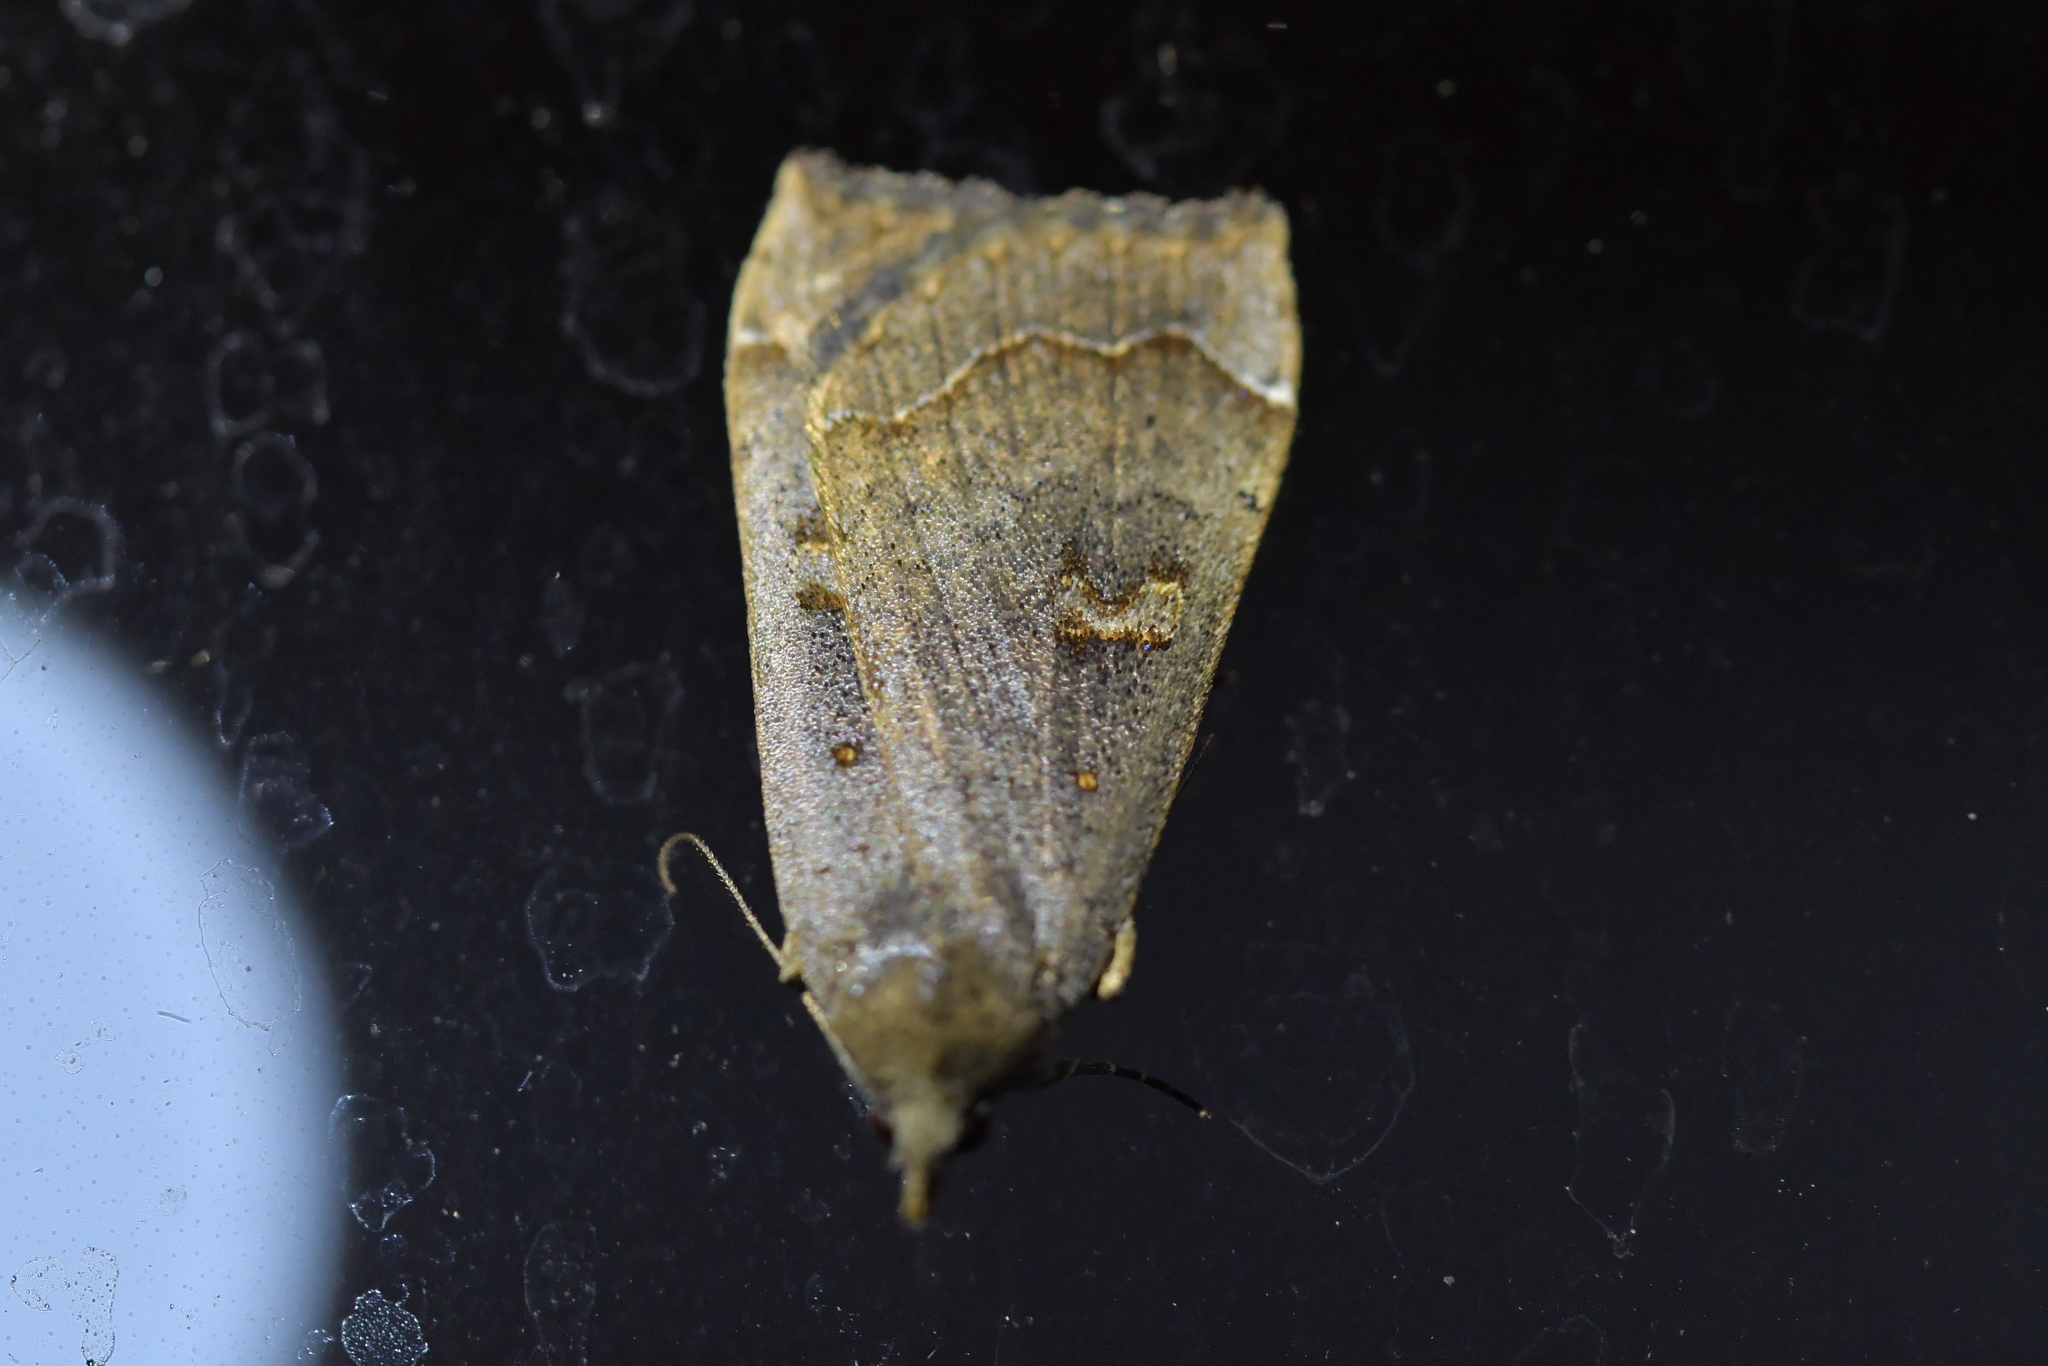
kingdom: Animalia
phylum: Arthropoda
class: Insecta
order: Lepidoptera
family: Erebidae
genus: Rhapsa
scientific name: Rhapsa scotosialis
